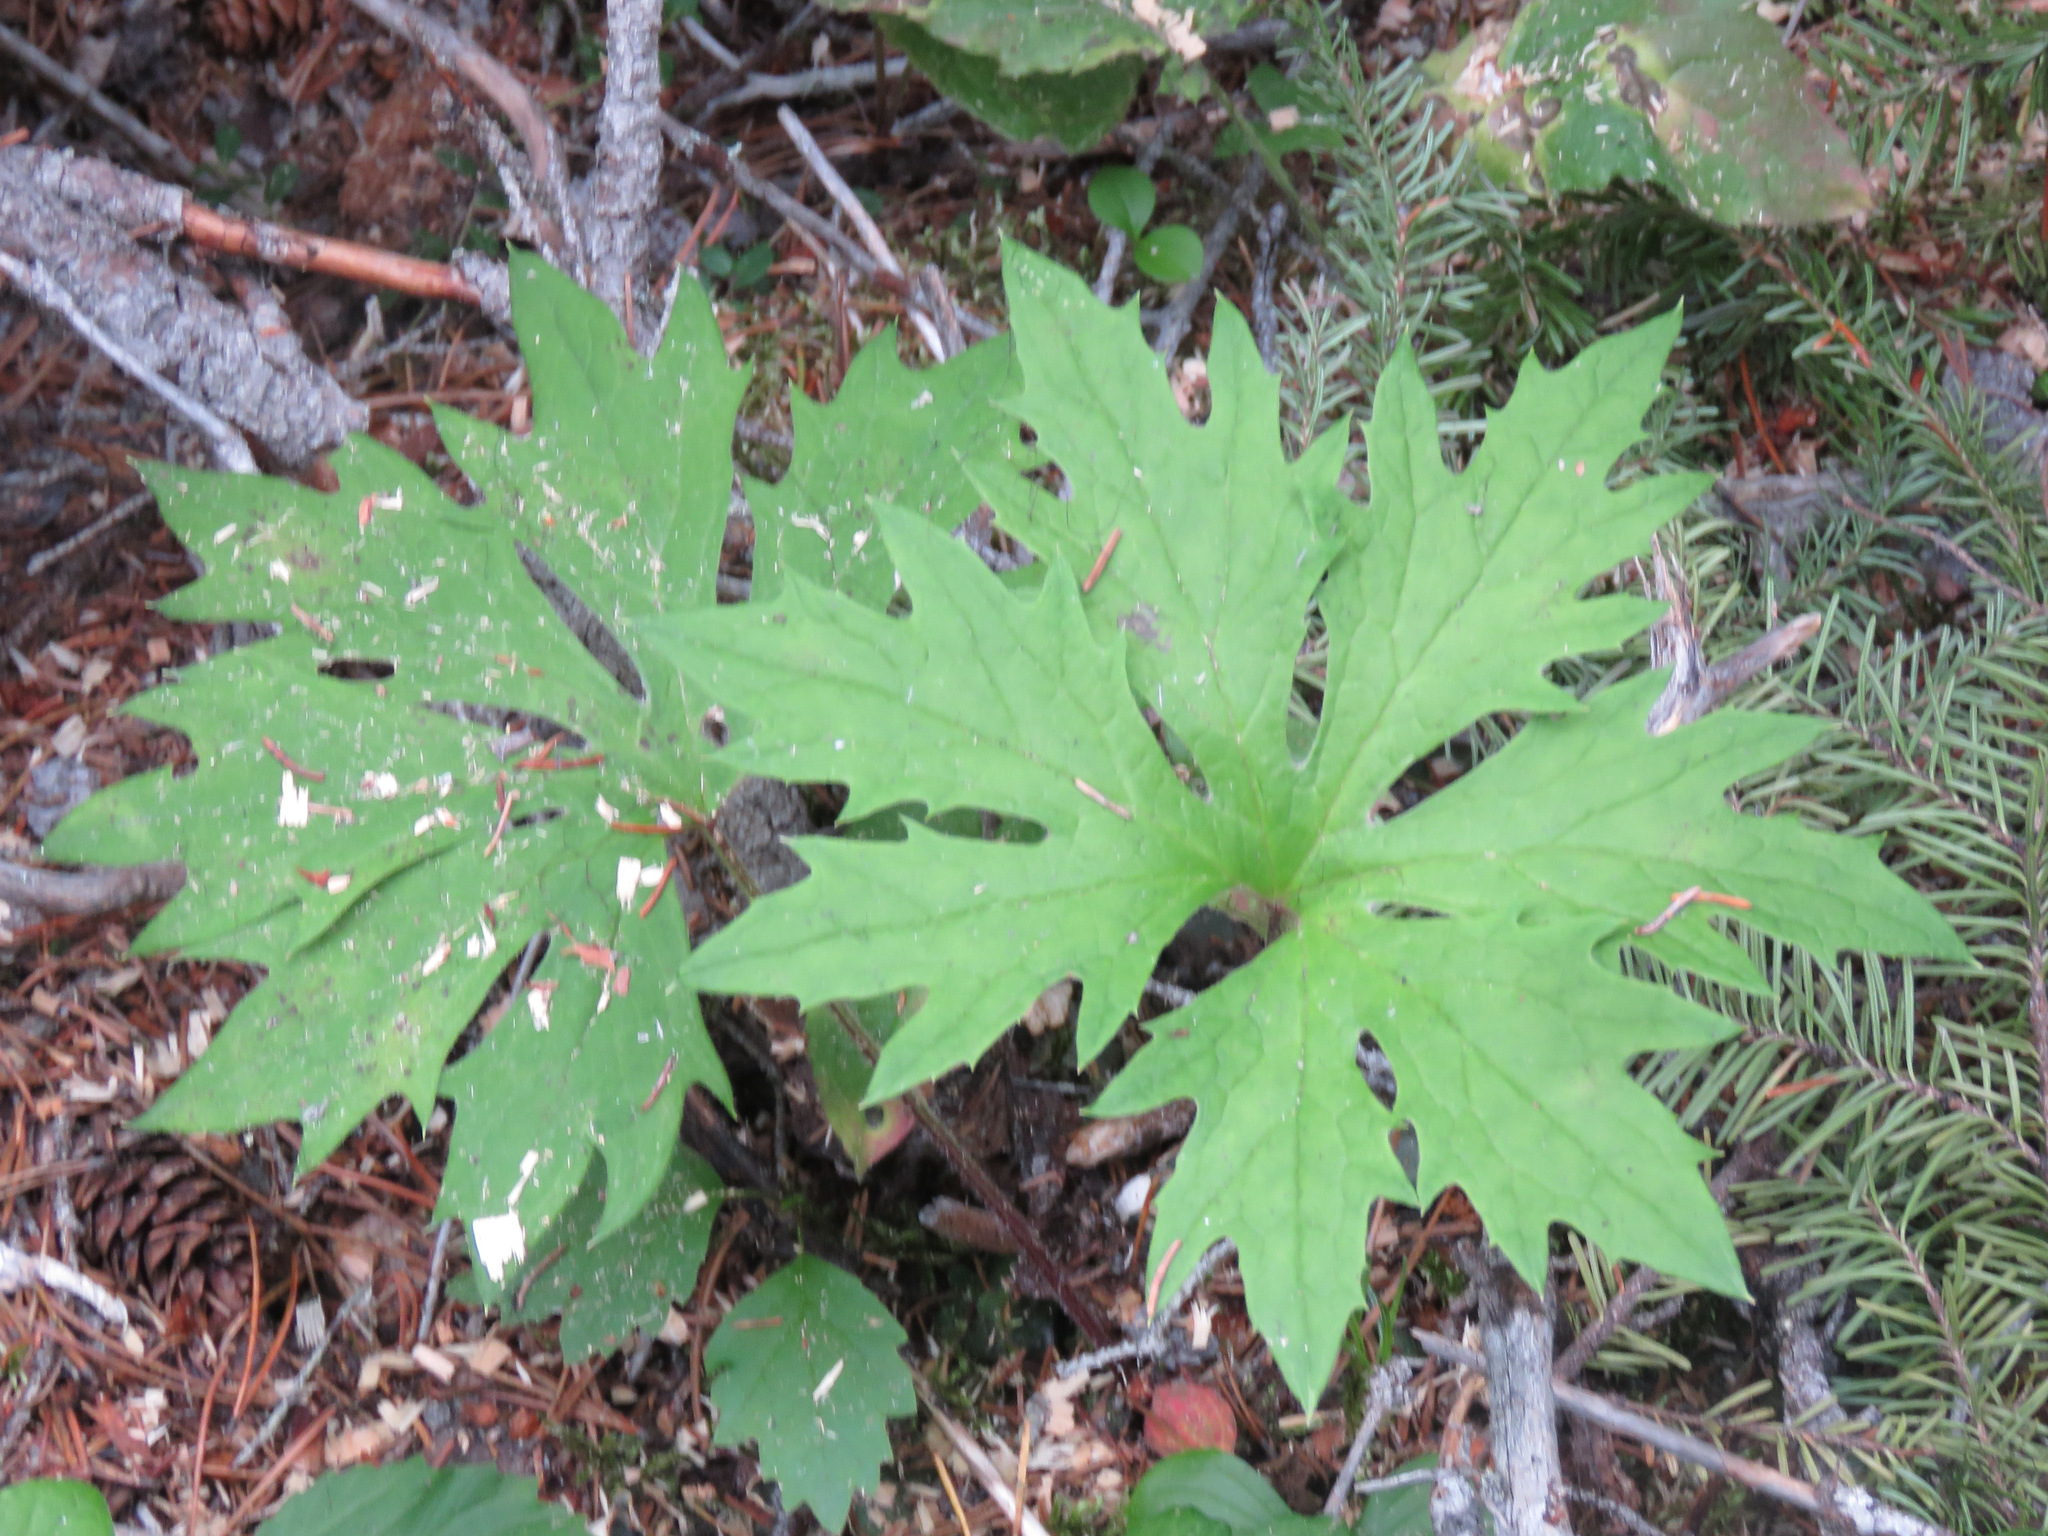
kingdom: Plantae
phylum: Tracheophyta
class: Magnoliopsida
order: Asterales
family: Asteraceae
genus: Petasites
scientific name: Petasites frigidus
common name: Arctic butterbur
